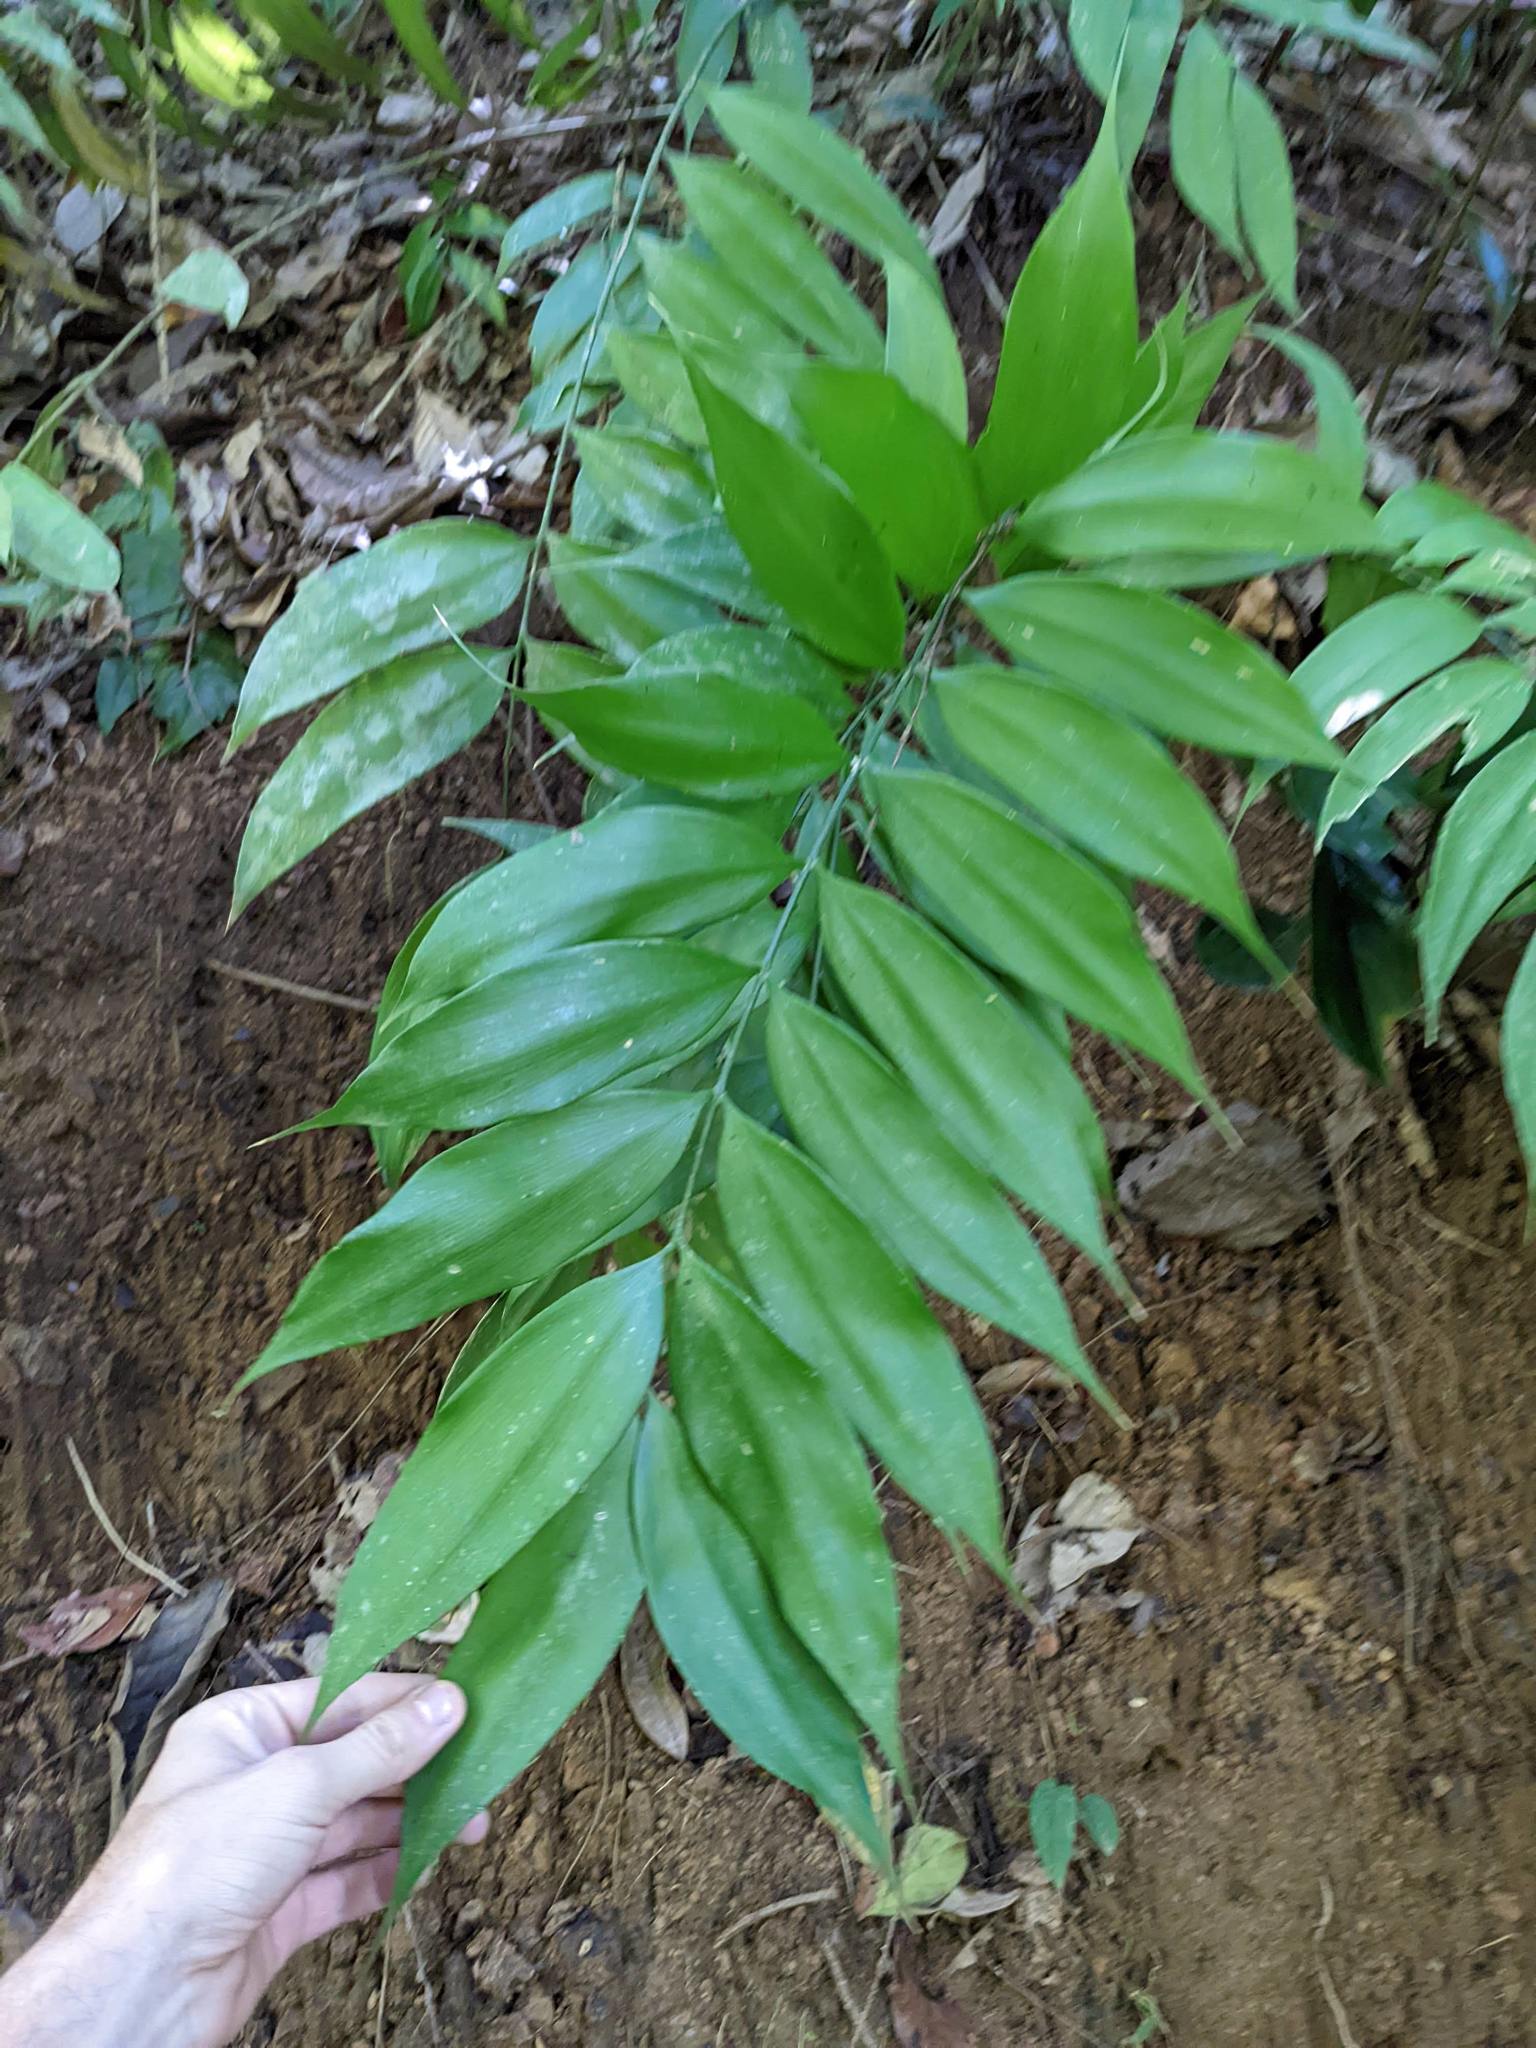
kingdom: Plantae
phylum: Tracheophyta
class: Cycadopsida
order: Cycadales
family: Zamiaceae
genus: Zamia
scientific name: Zamia acuminata
